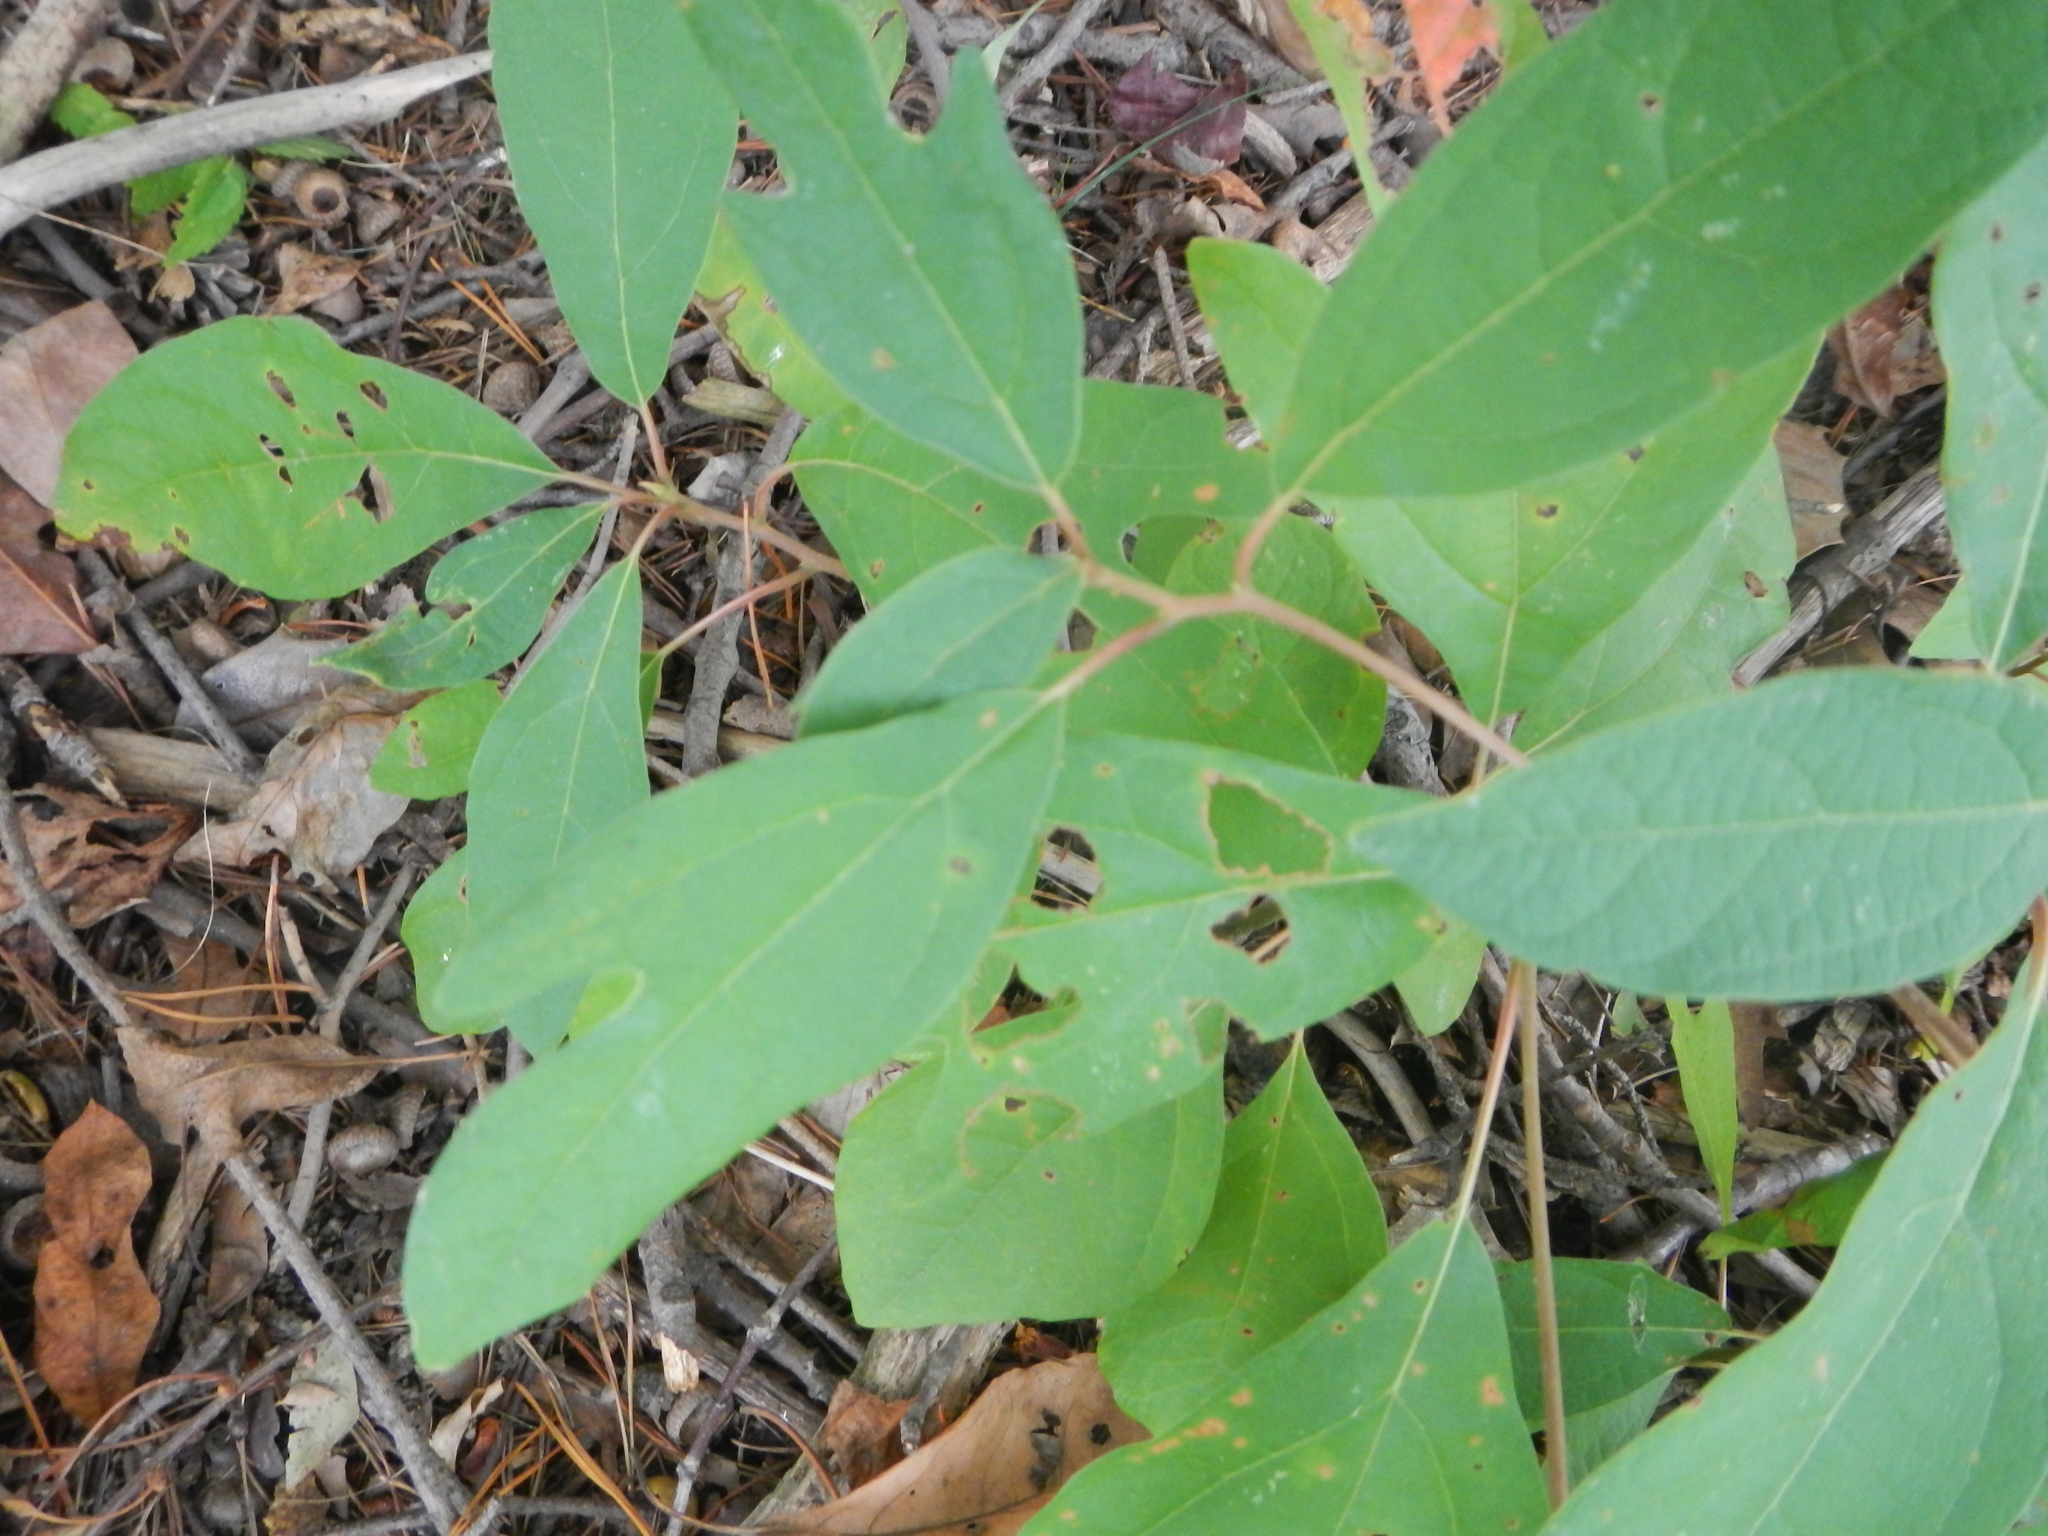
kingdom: Plantae
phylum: Tracheophyta
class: Magnoliopsida
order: Laurales
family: Lauraceae
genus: Sassafras
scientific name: Sassafras albidum
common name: Sassafras
